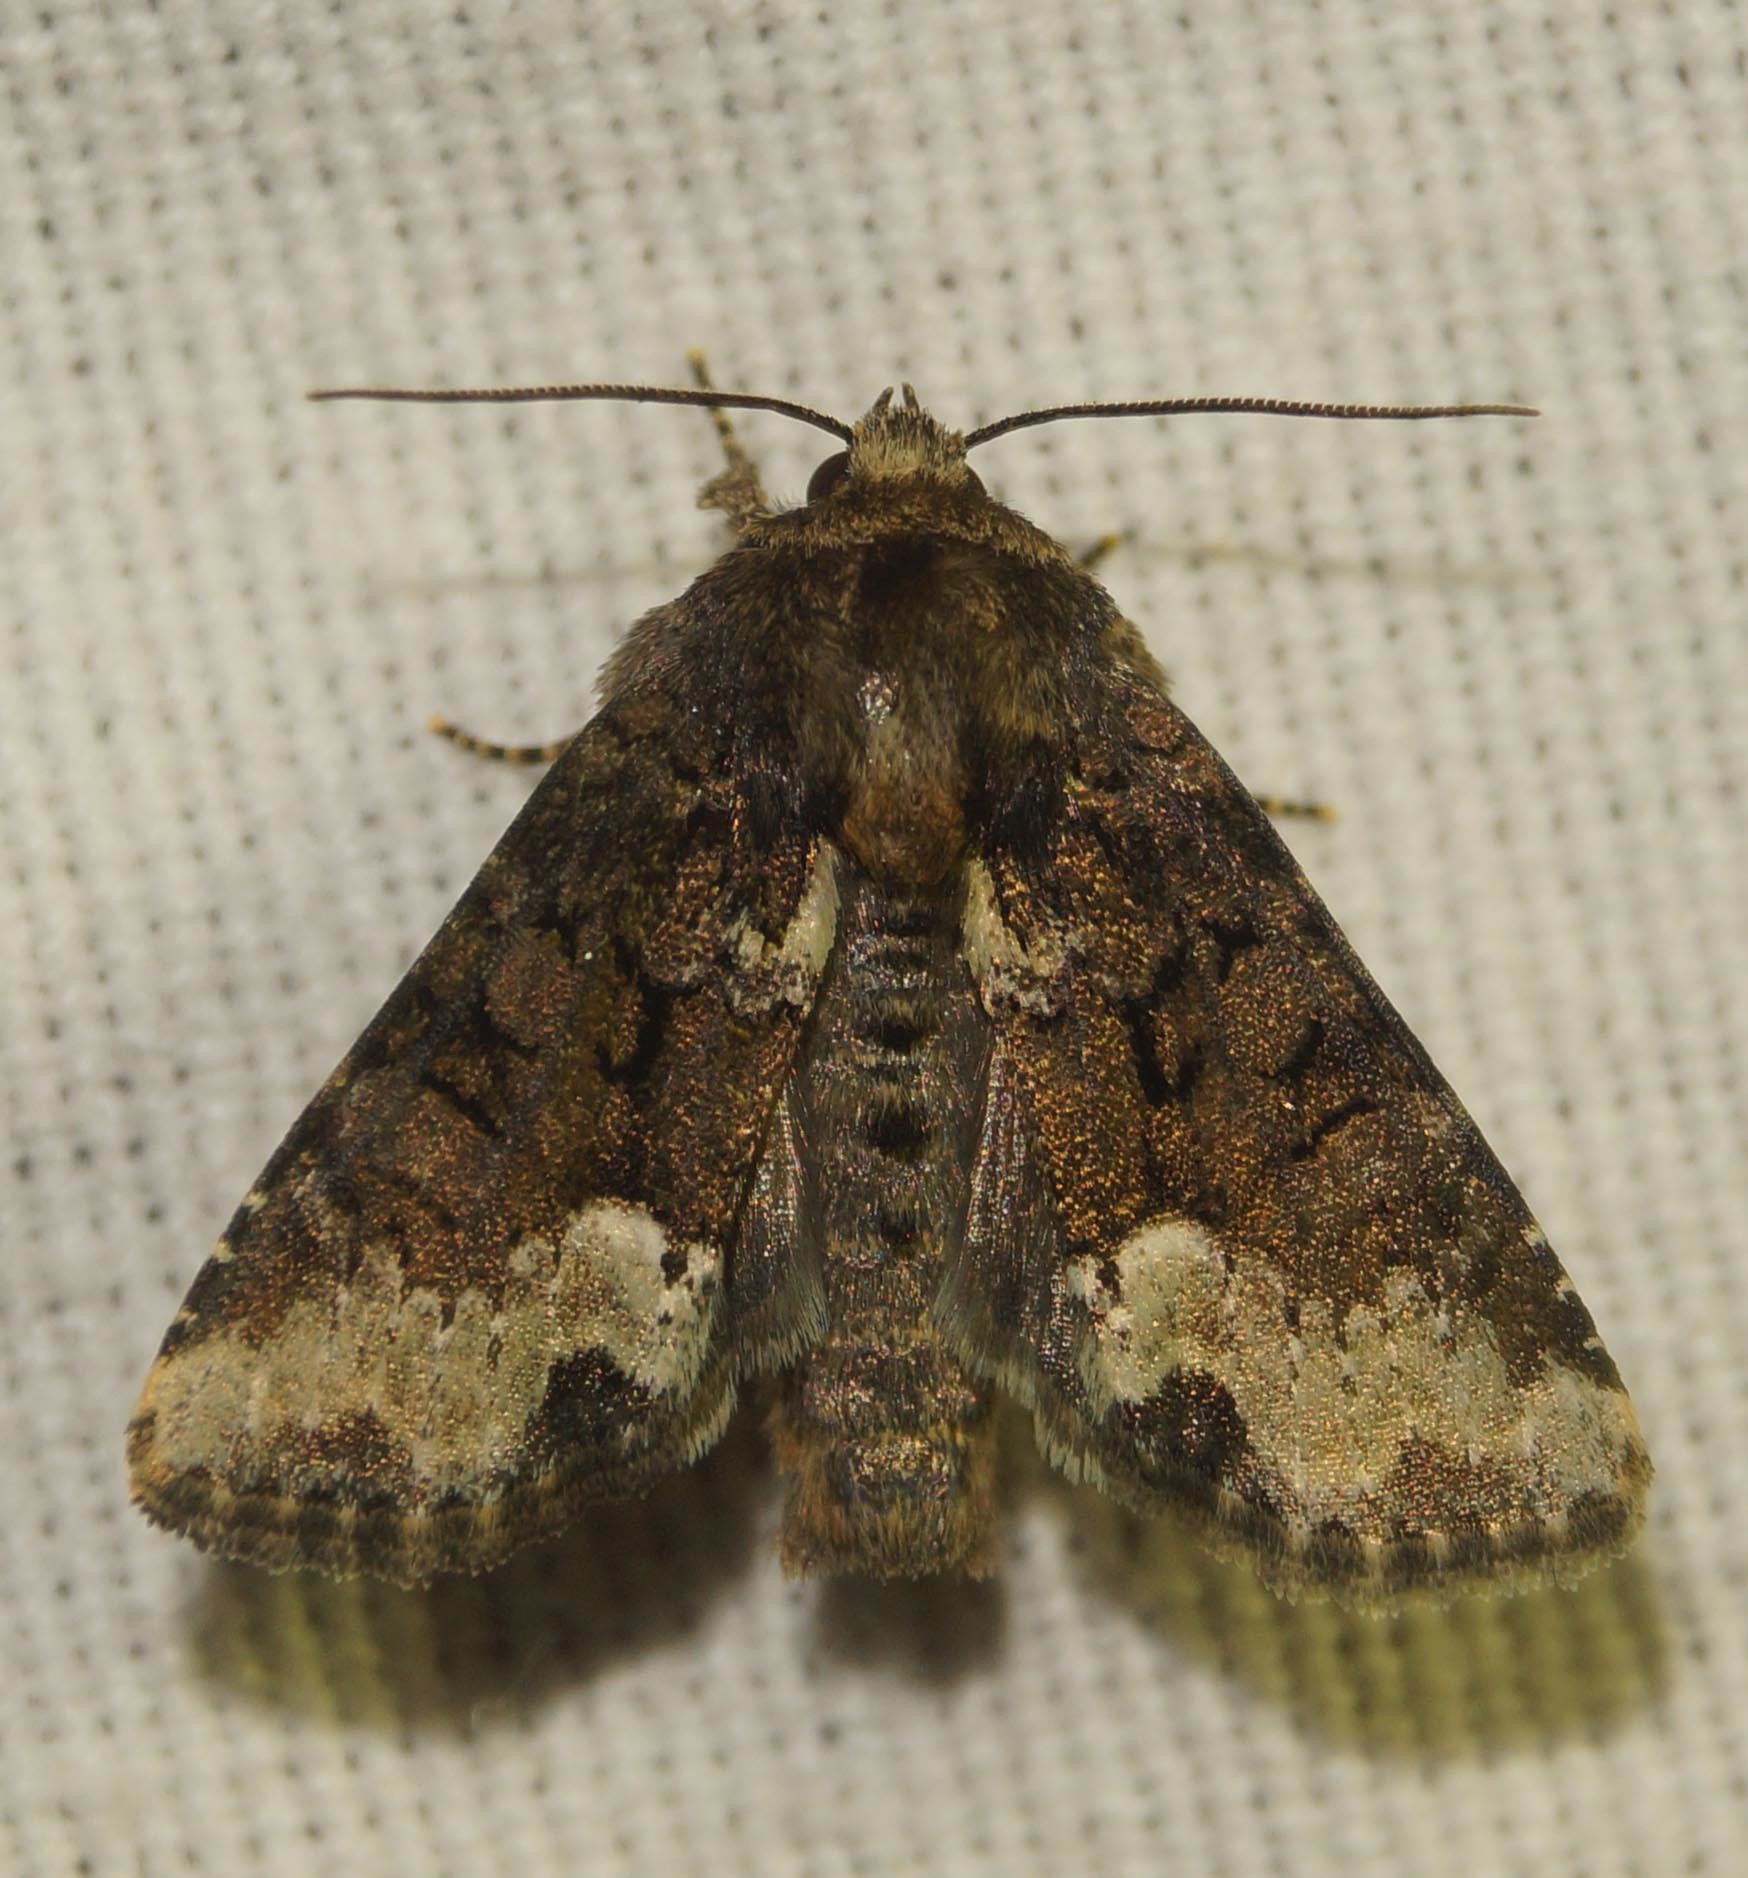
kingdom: Animalia
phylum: Arthropoda
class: Insecta
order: Lepidoptera
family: Noctuidae
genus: Oligia
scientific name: Oligia strigilis
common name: Marbled minor
